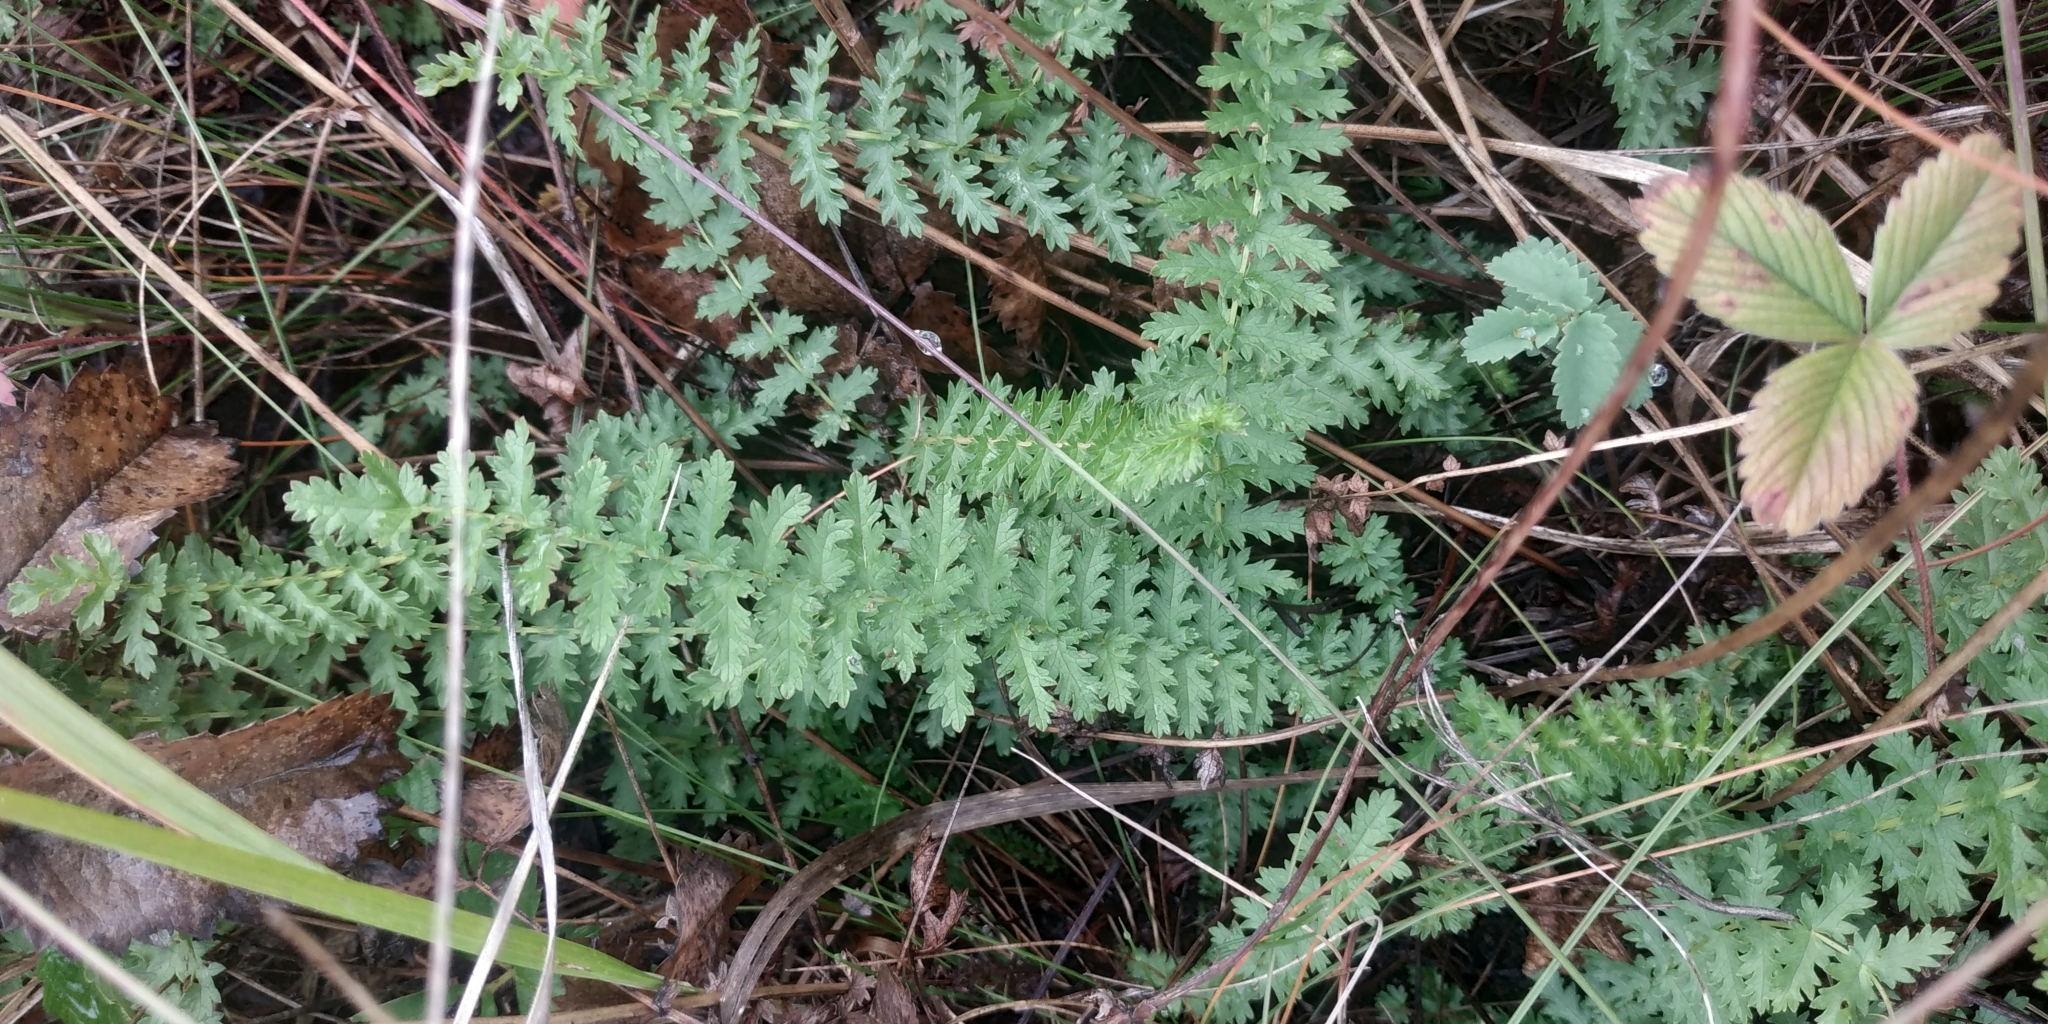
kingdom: Plantae
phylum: Tracheophyta
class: Magnoliopsida
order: Rosales
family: Rosaceae
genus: Filipendula
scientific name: Filipendula vulgaris
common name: Dropwort
